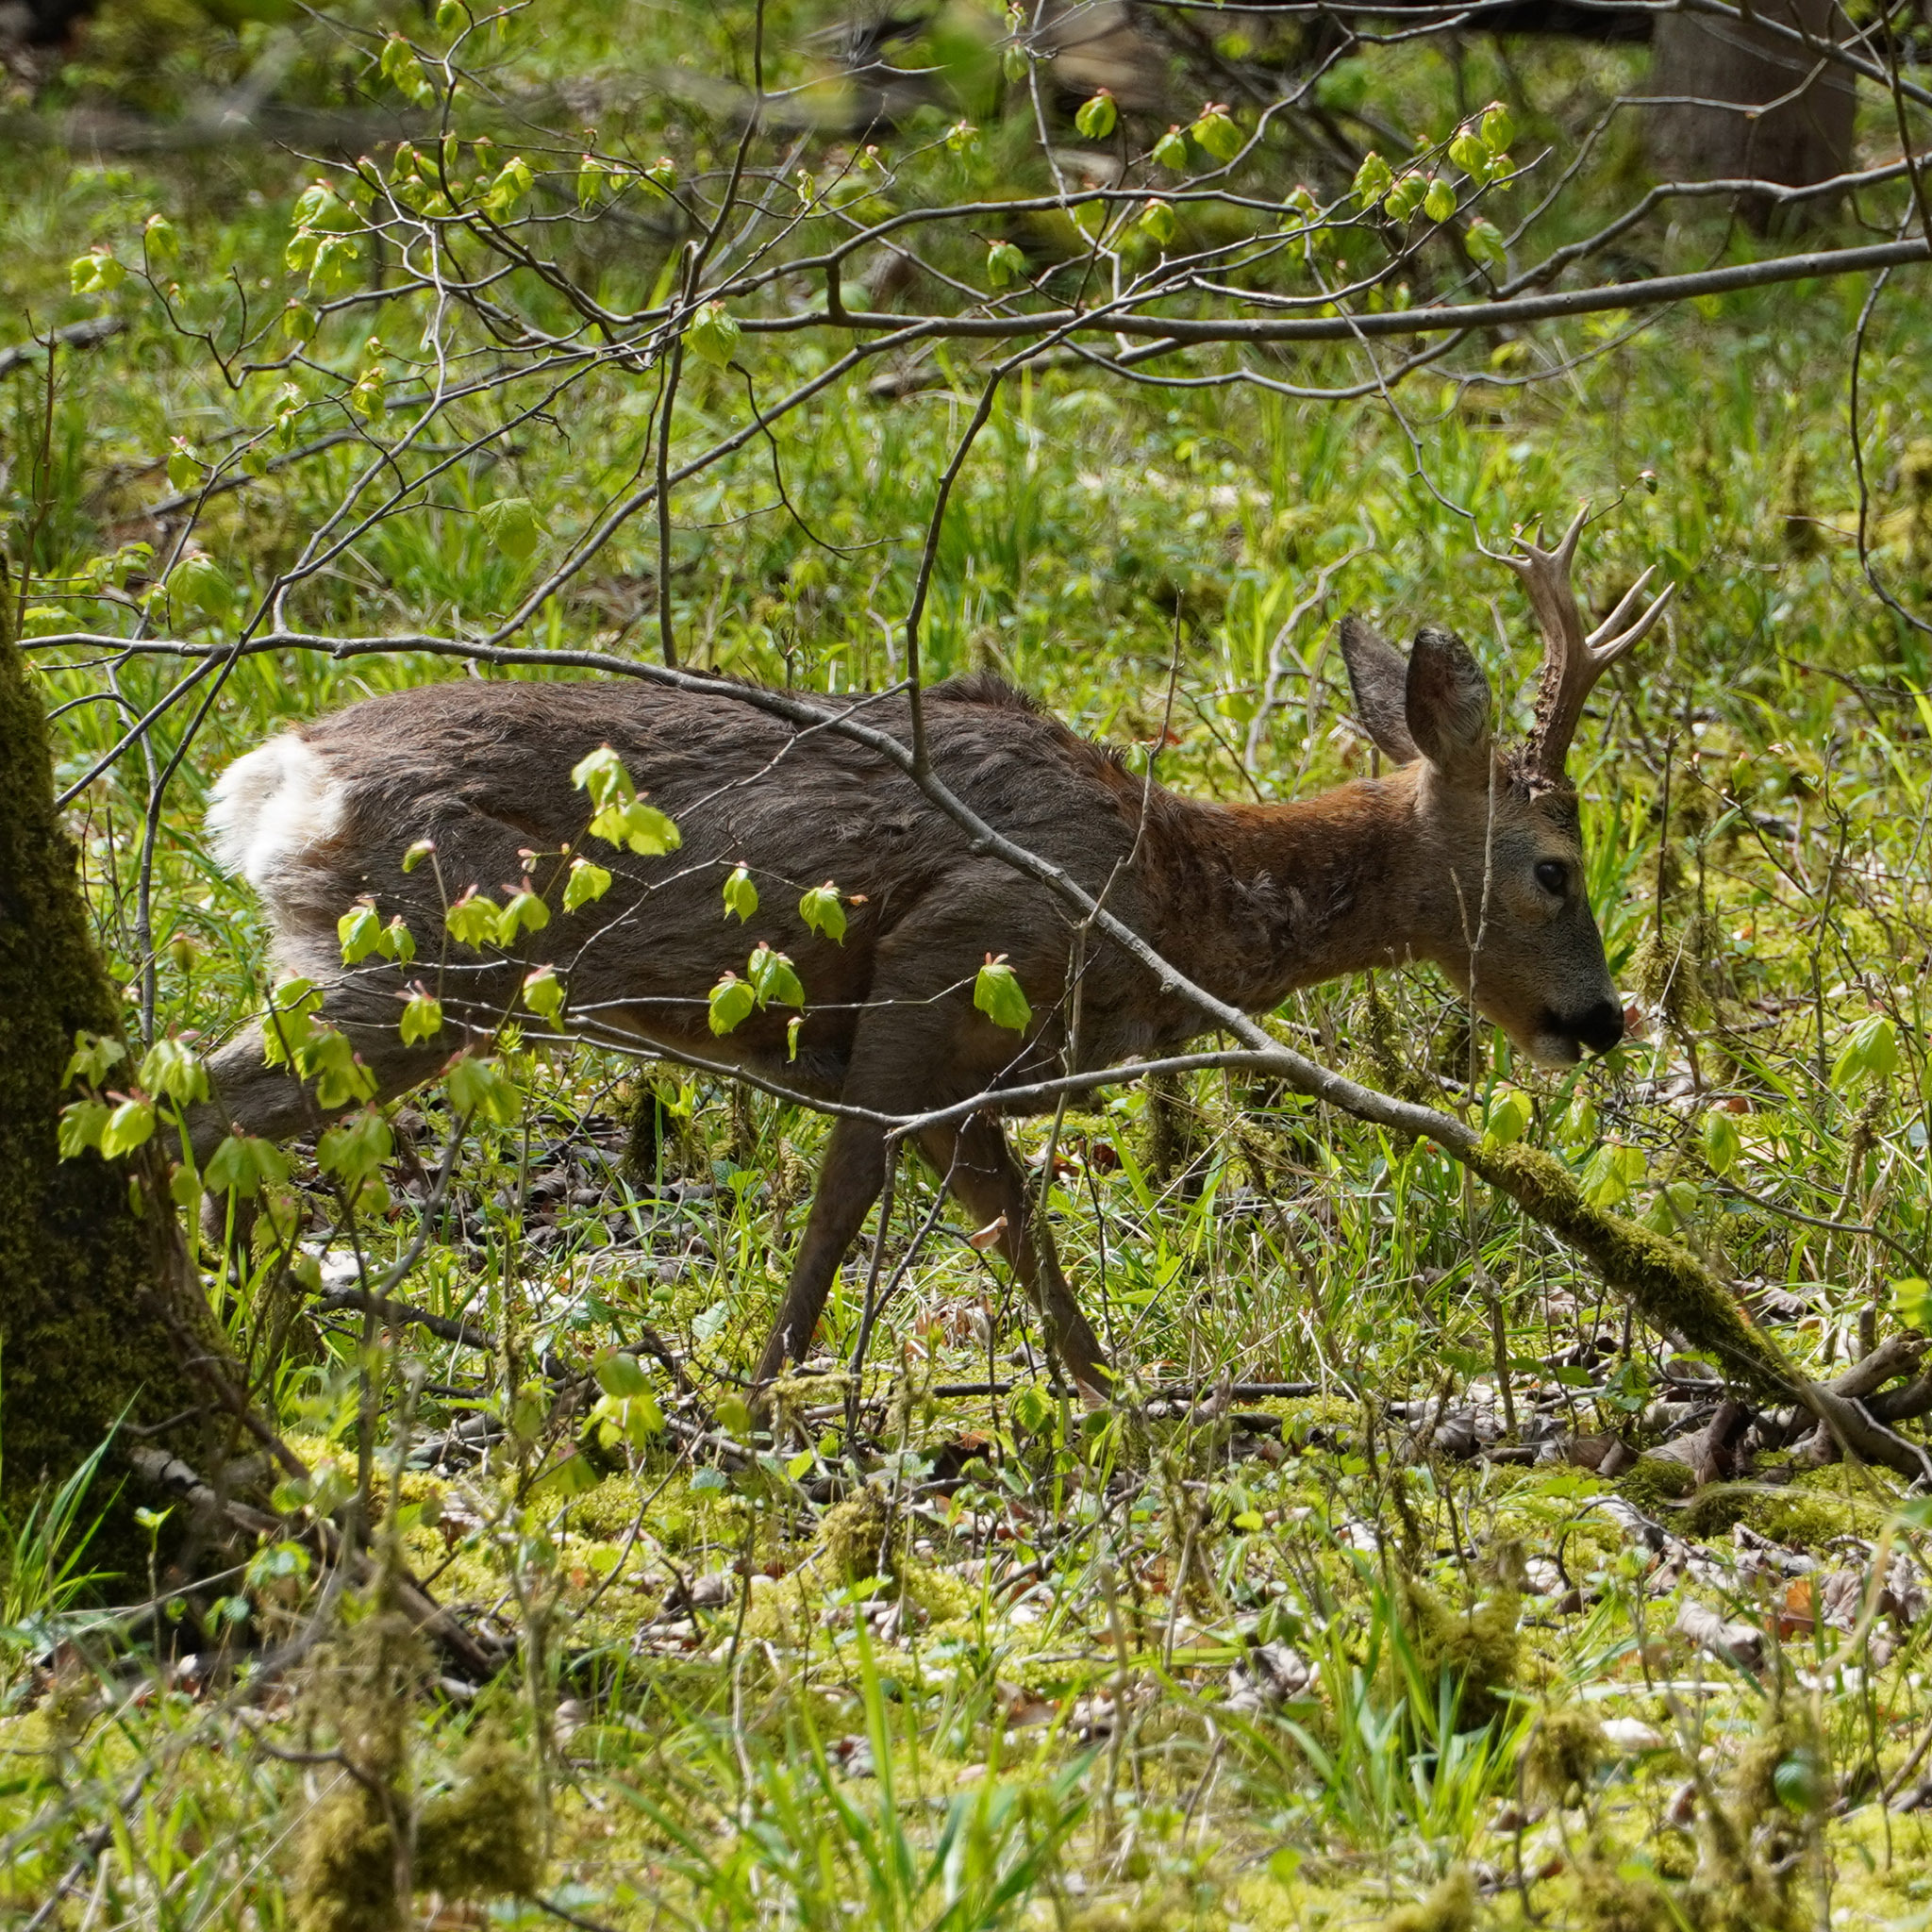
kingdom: Animalia
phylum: Chordata
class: Mammalia
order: Artiodactyla
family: Cervidae
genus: Capreolus
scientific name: Capreolus capreolus
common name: Western roe deer
